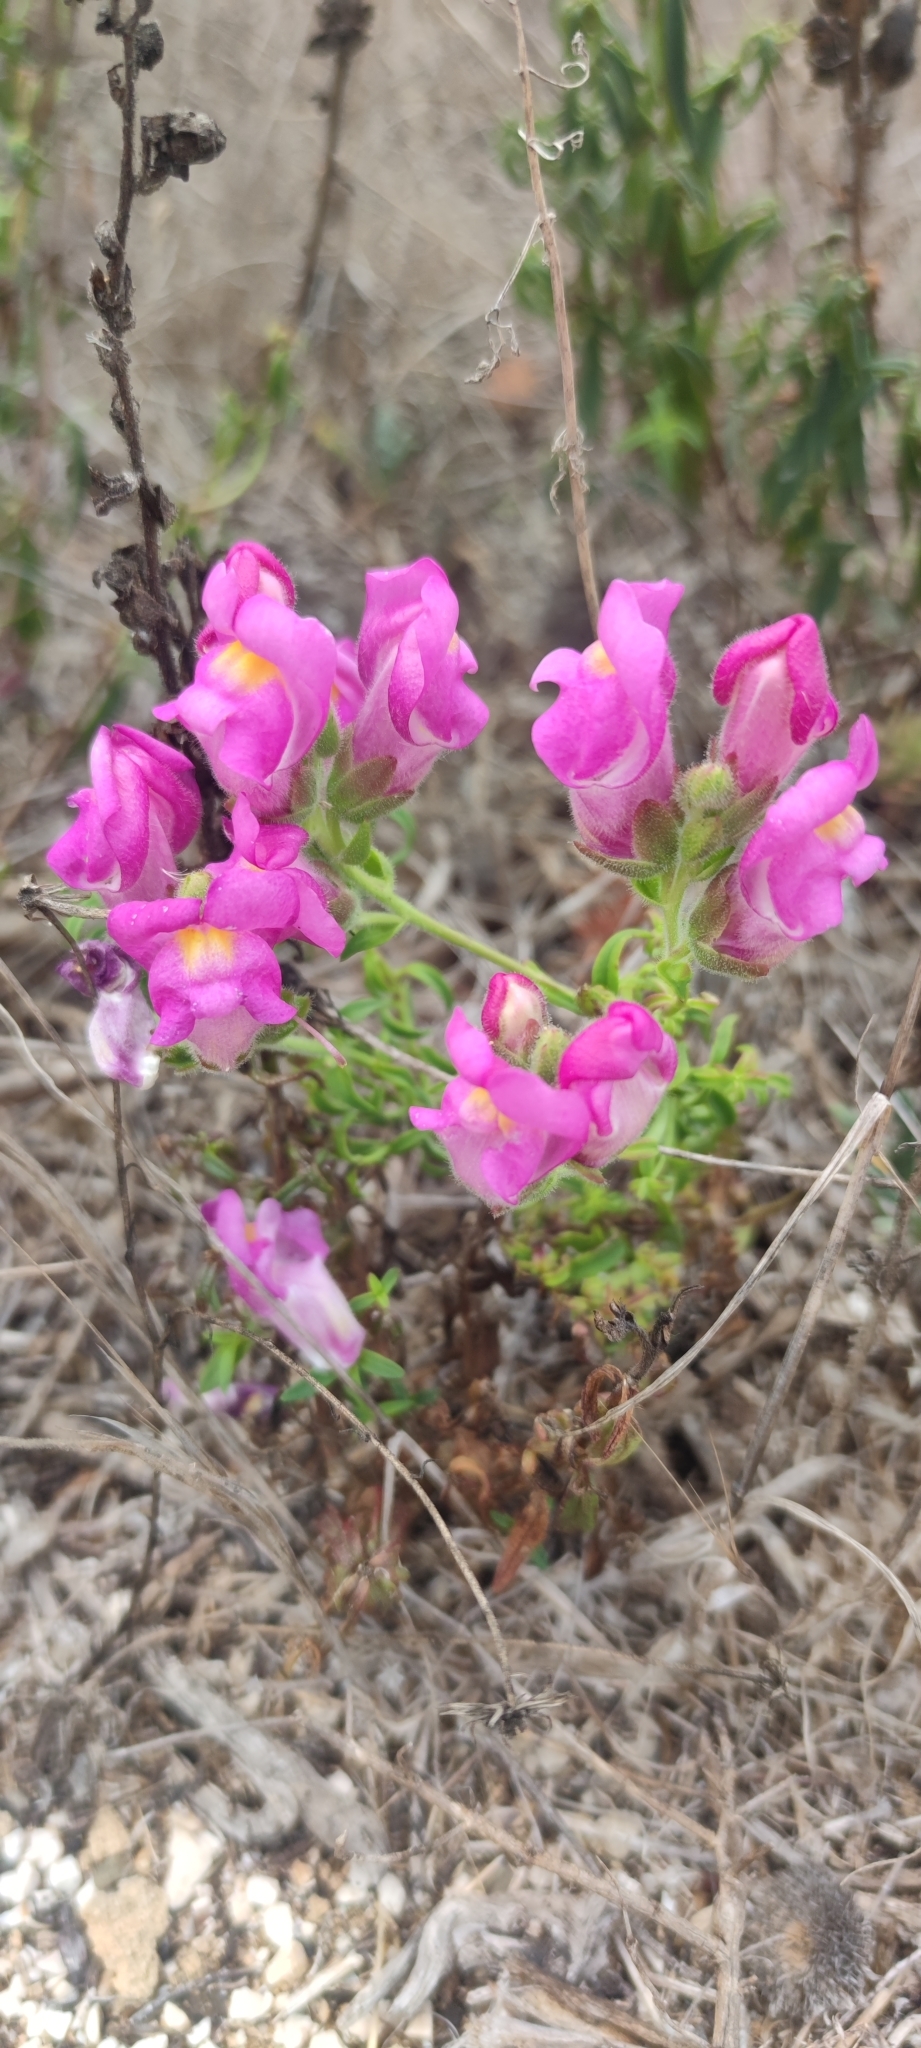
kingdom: Plantae
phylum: Tracheophyta
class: Magnoliopsida
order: Lamiales
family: Plantaginaceae
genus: Antirrhinum
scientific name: Antirrhinum cirrhigerum
